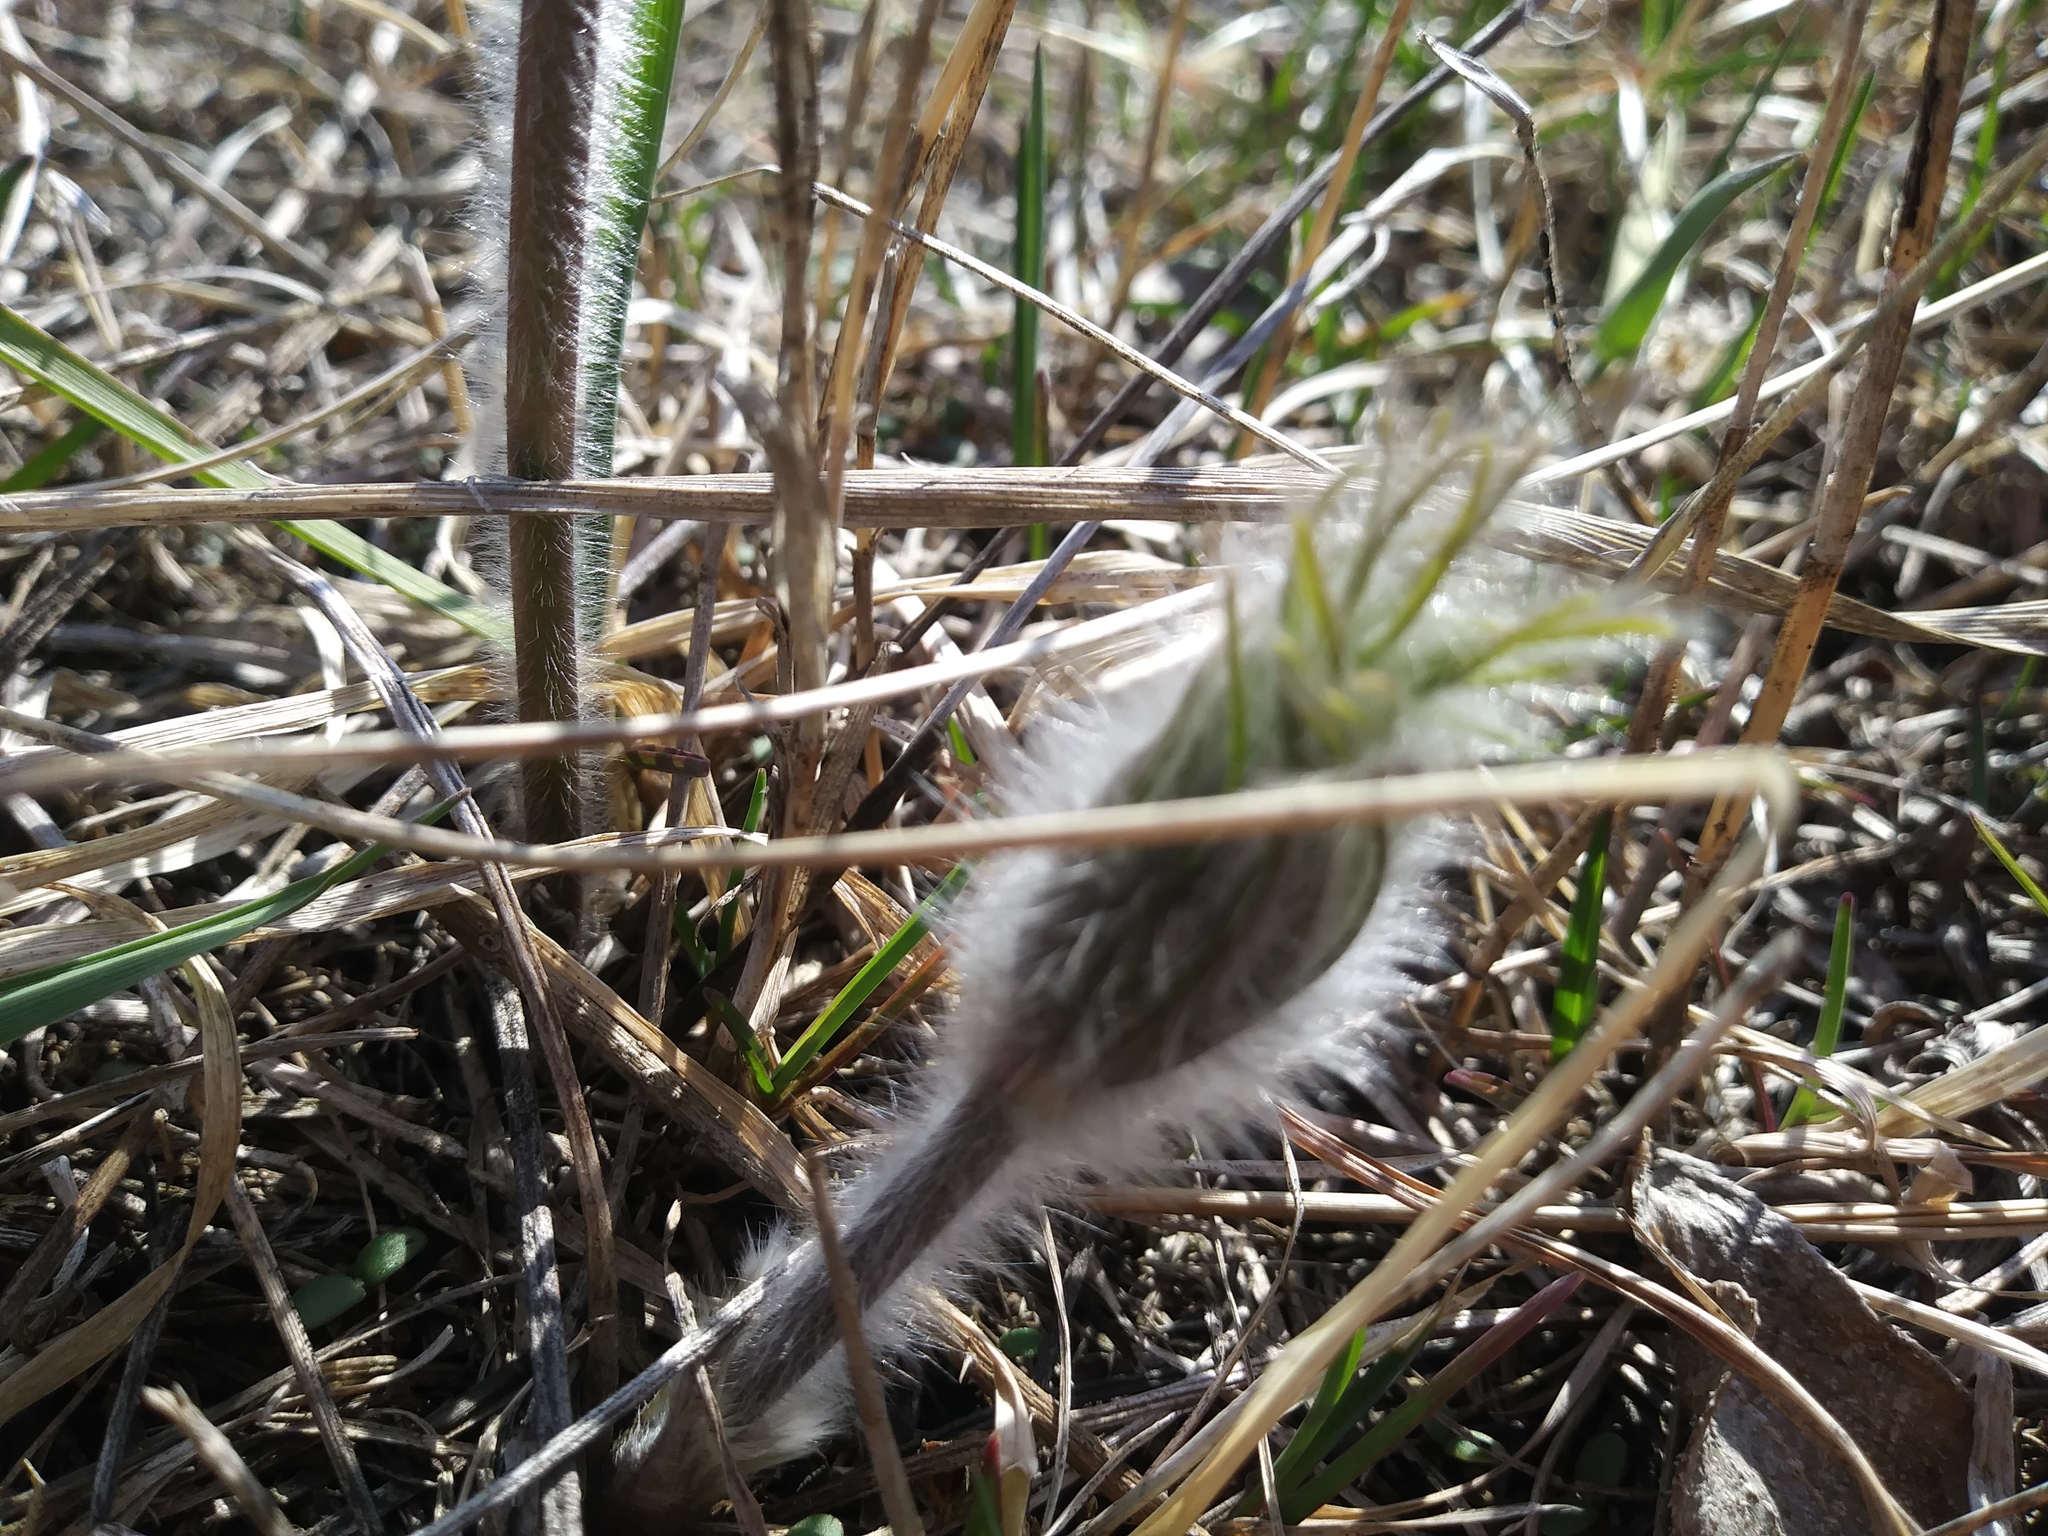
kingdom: Plantae
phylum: Tracheophyta
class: Magnoliopsida
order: Ranunculales
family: Ranunculaceae
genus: Pulsatilla
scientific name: Pulsatilla nuttalliana
